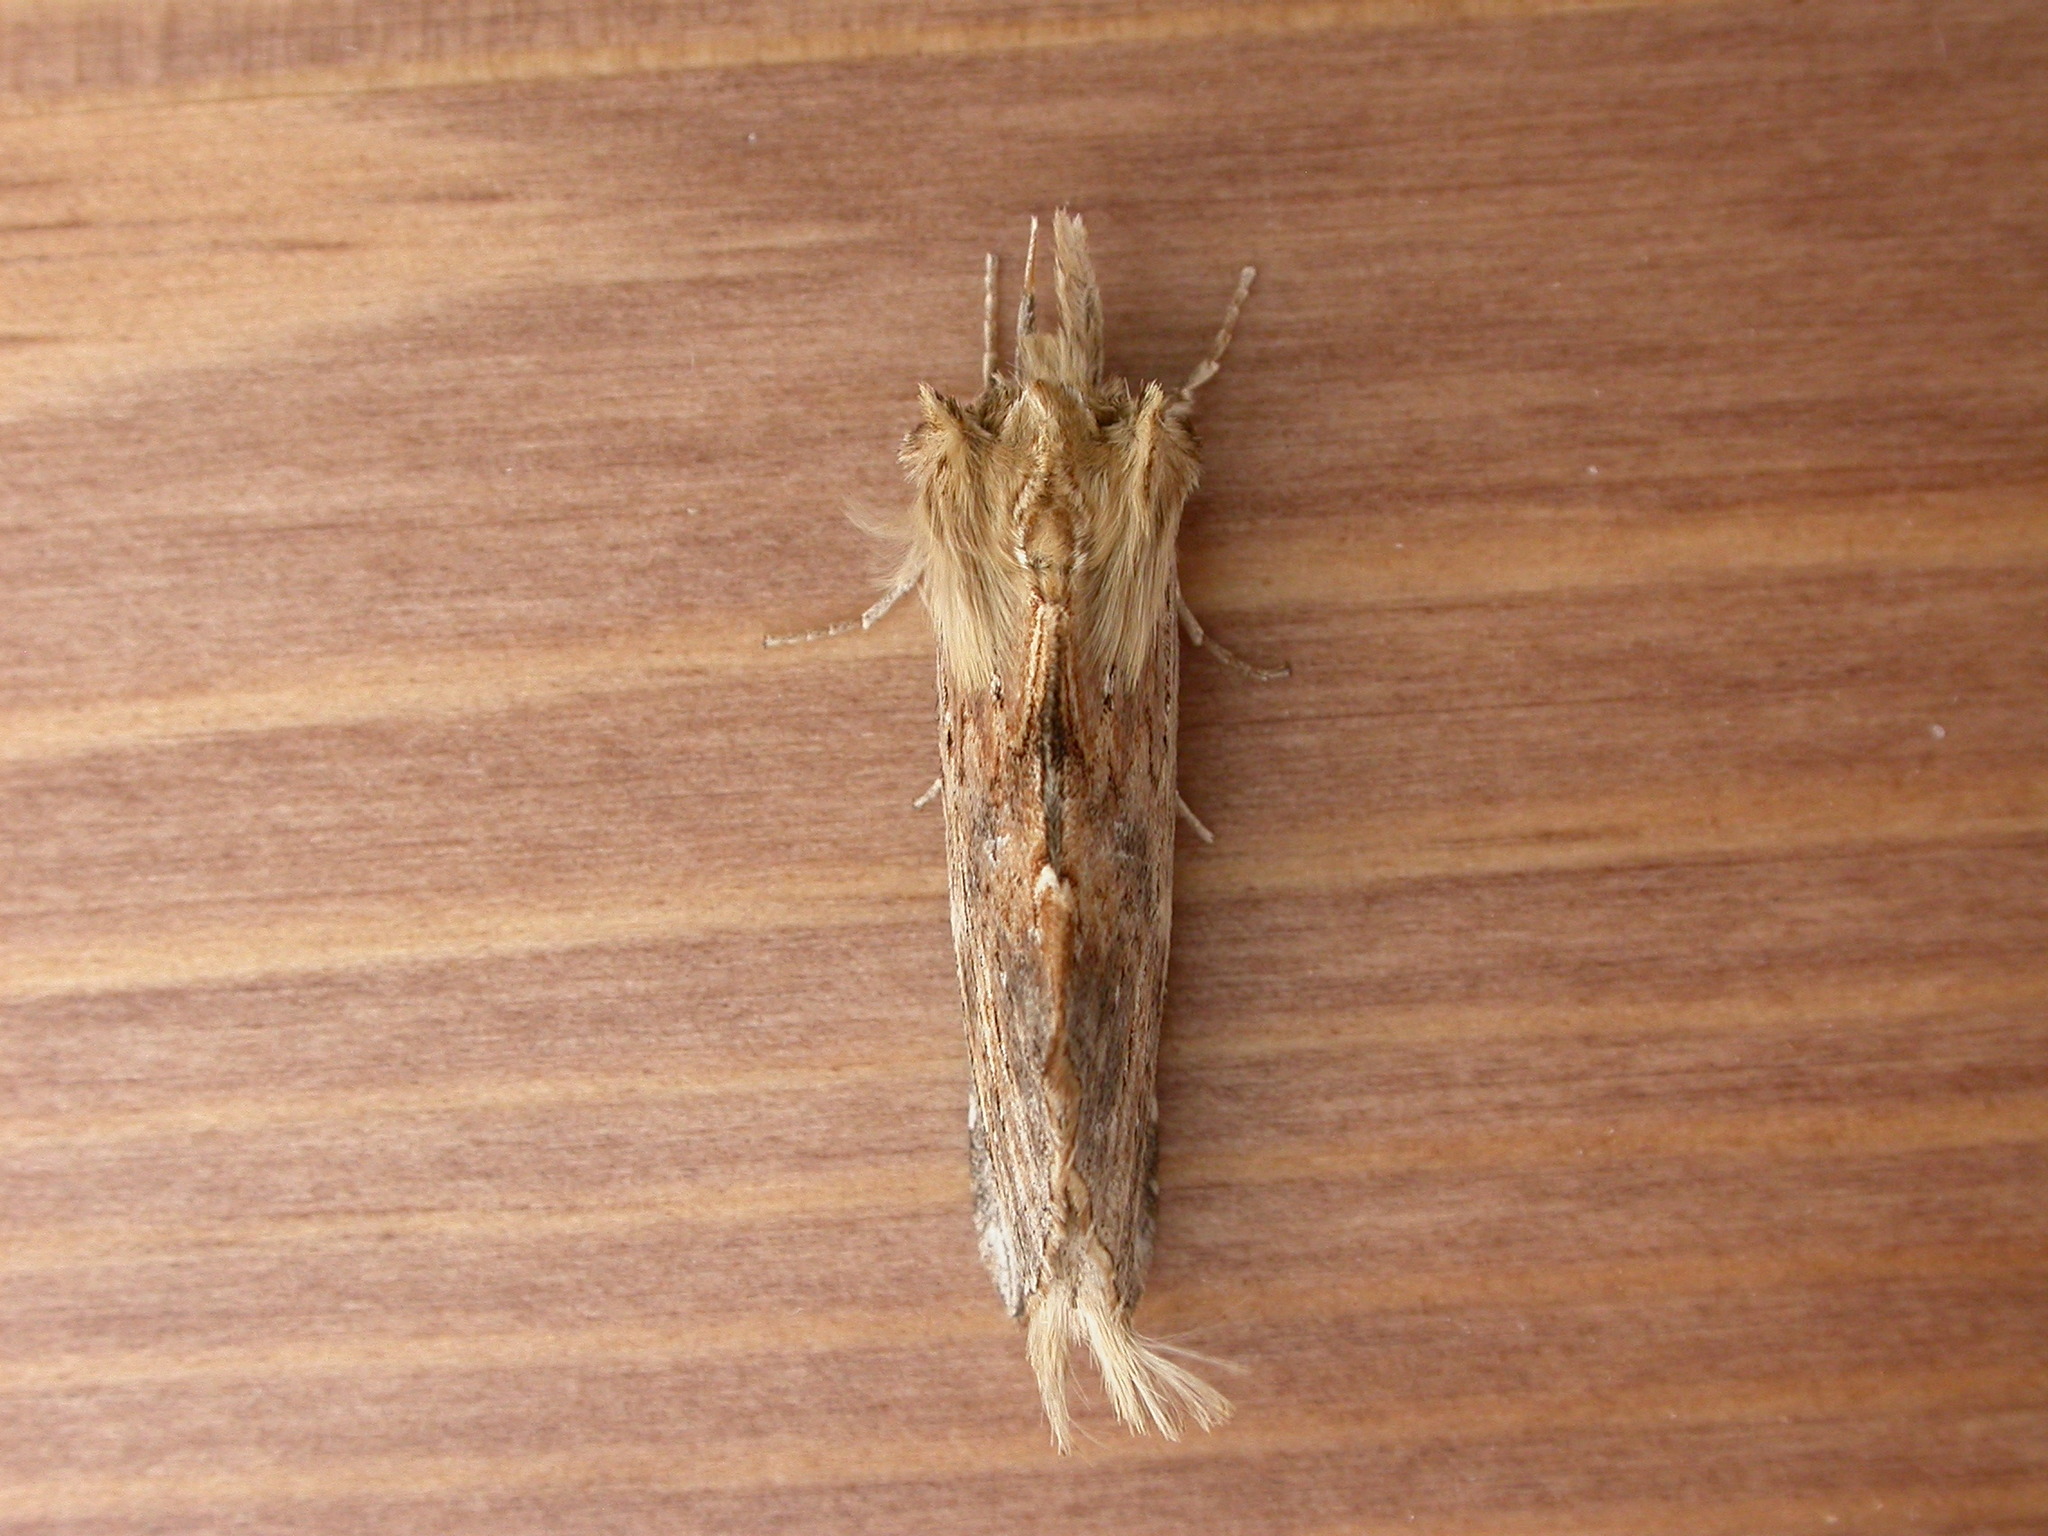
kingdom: Animalia
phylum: Arthropoda
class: Insecta
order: Lepidoptera
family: Notodontidae
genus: Pterostoma
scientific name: Pterostoma palpina
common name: Pale prominent
